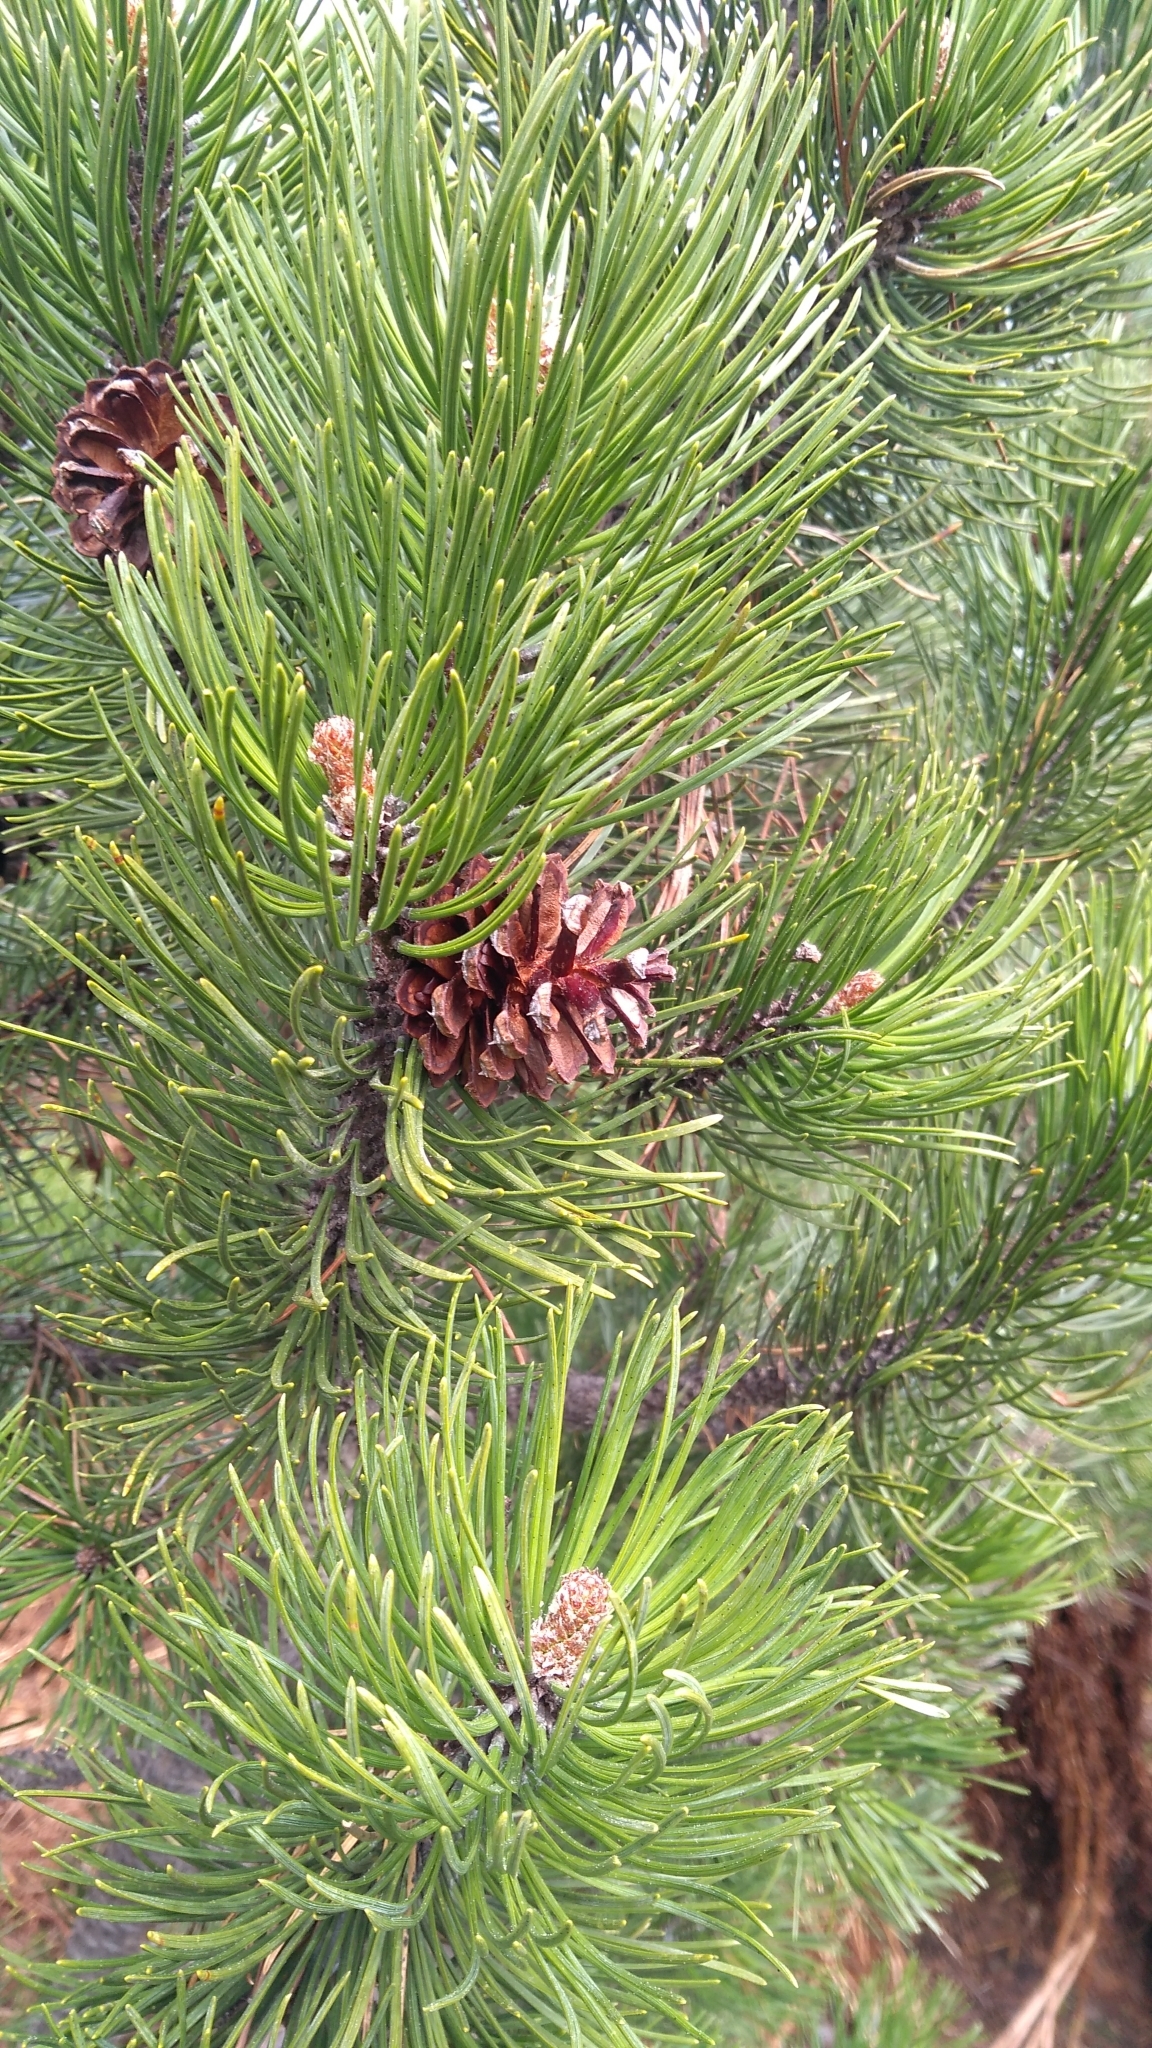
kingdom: Plantae
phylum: Tracheophyta
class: Pinopsida
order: Pinales
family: Pinaceae
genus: Pinus
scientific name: Pinus mugo
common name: Mugo pine
